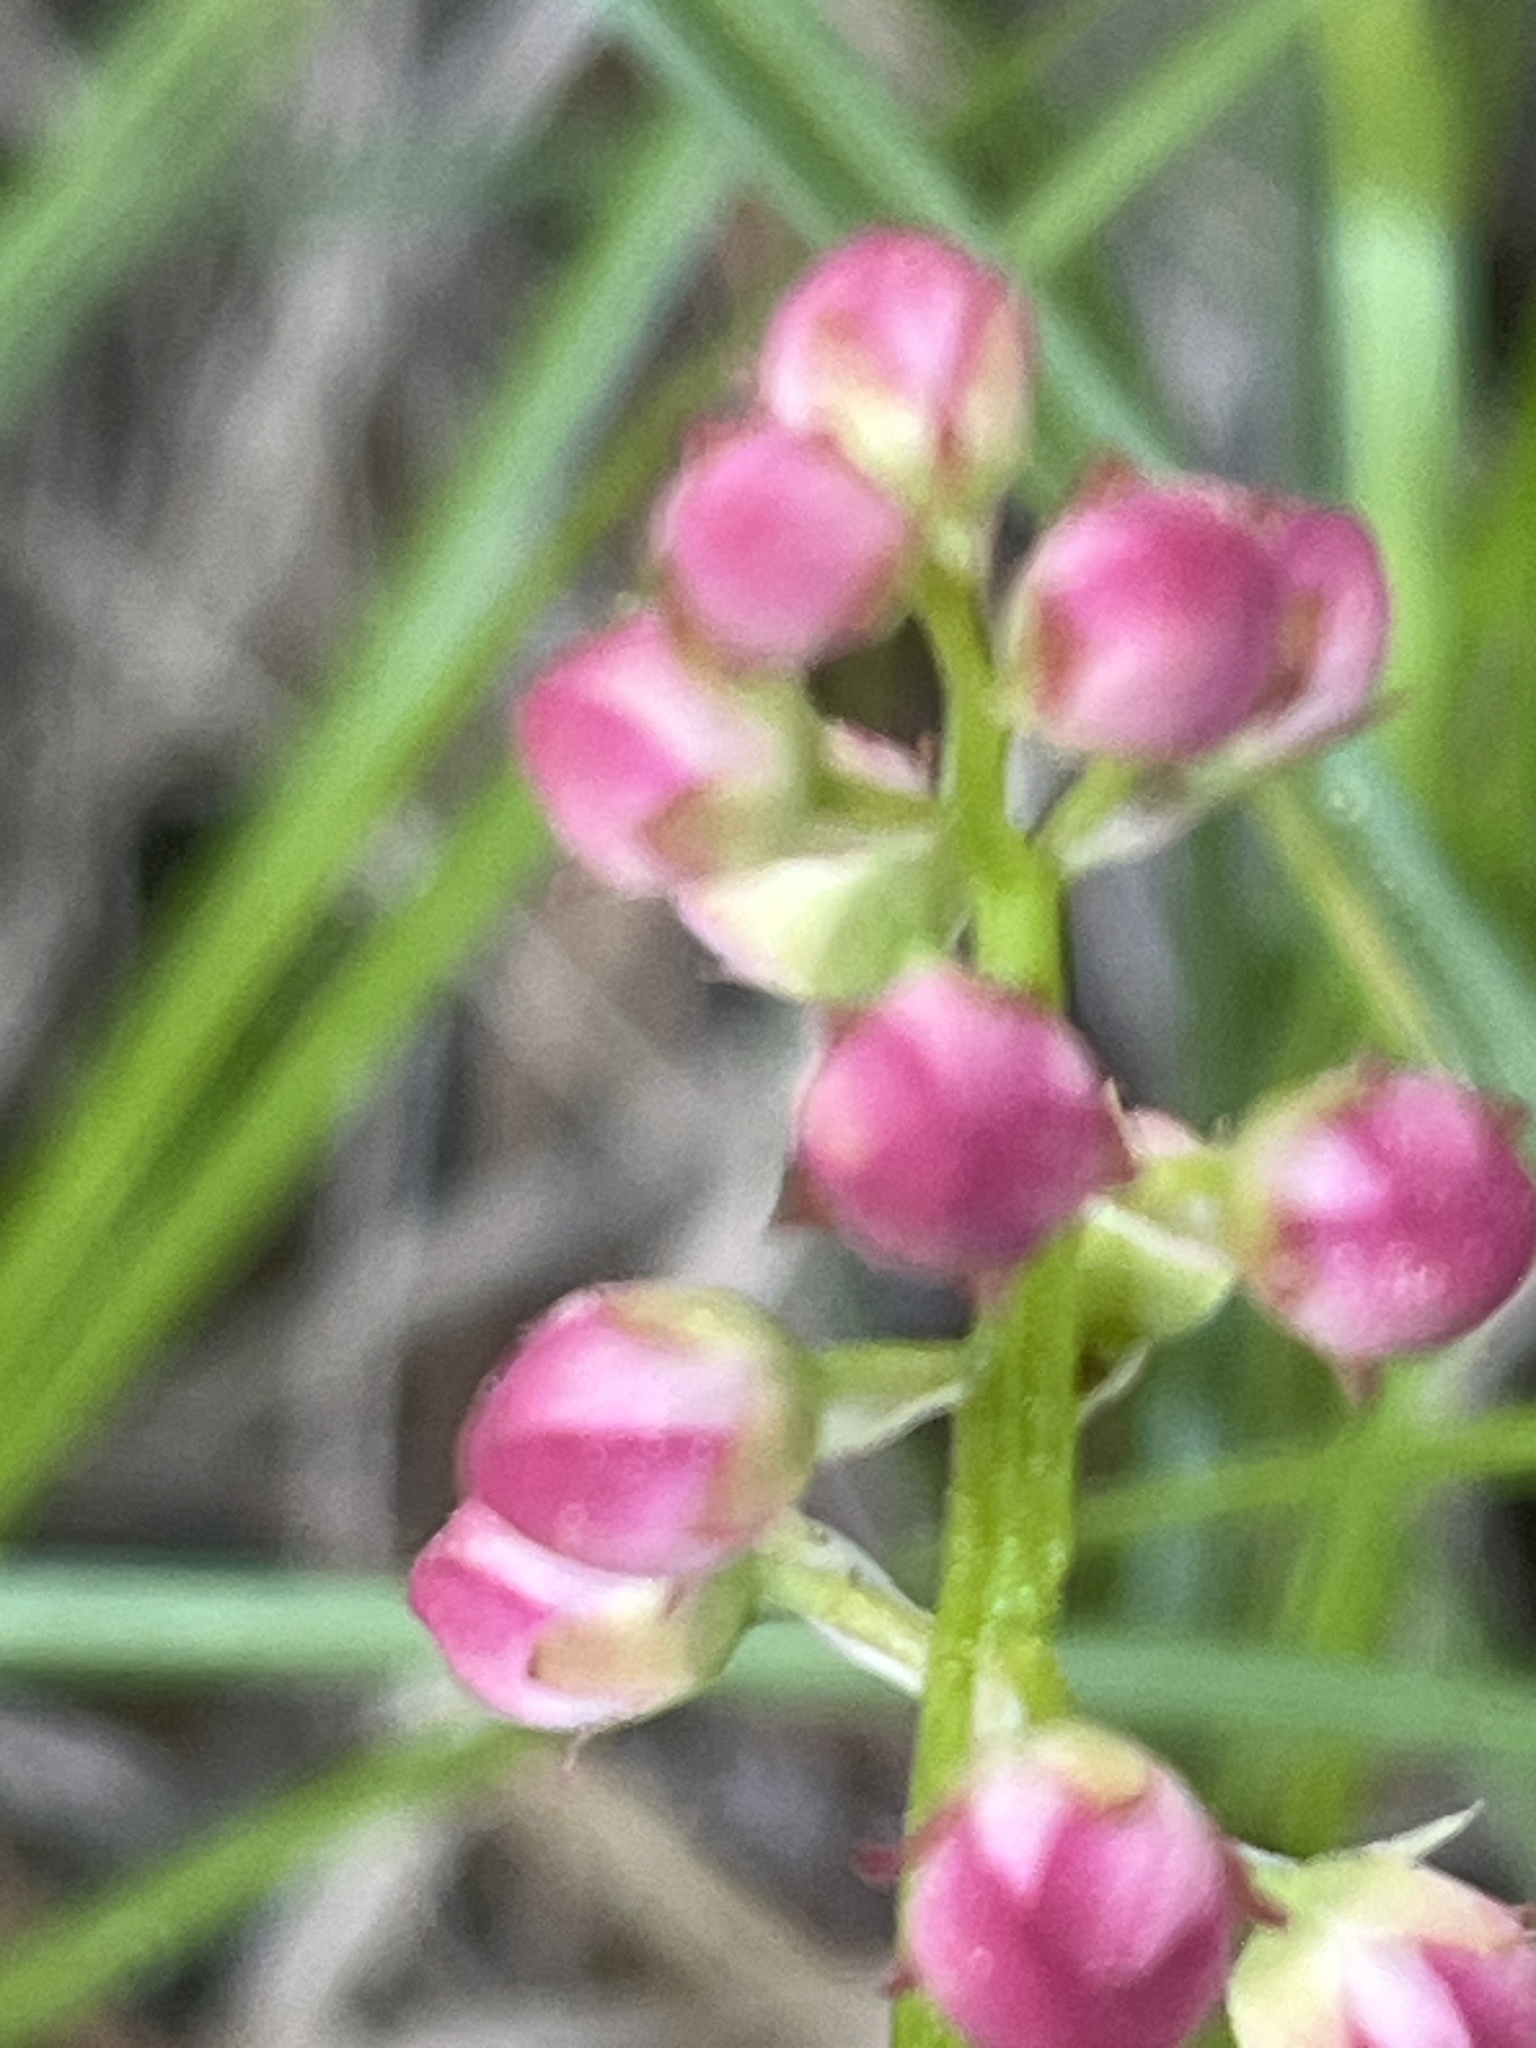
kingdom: Plantae
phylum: Tracheophyta
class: Magnoliopsida
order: Ericales
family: Ericaceae
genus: Pyrola
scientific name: Pyrola asarifolia
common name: Bog wintergreen
